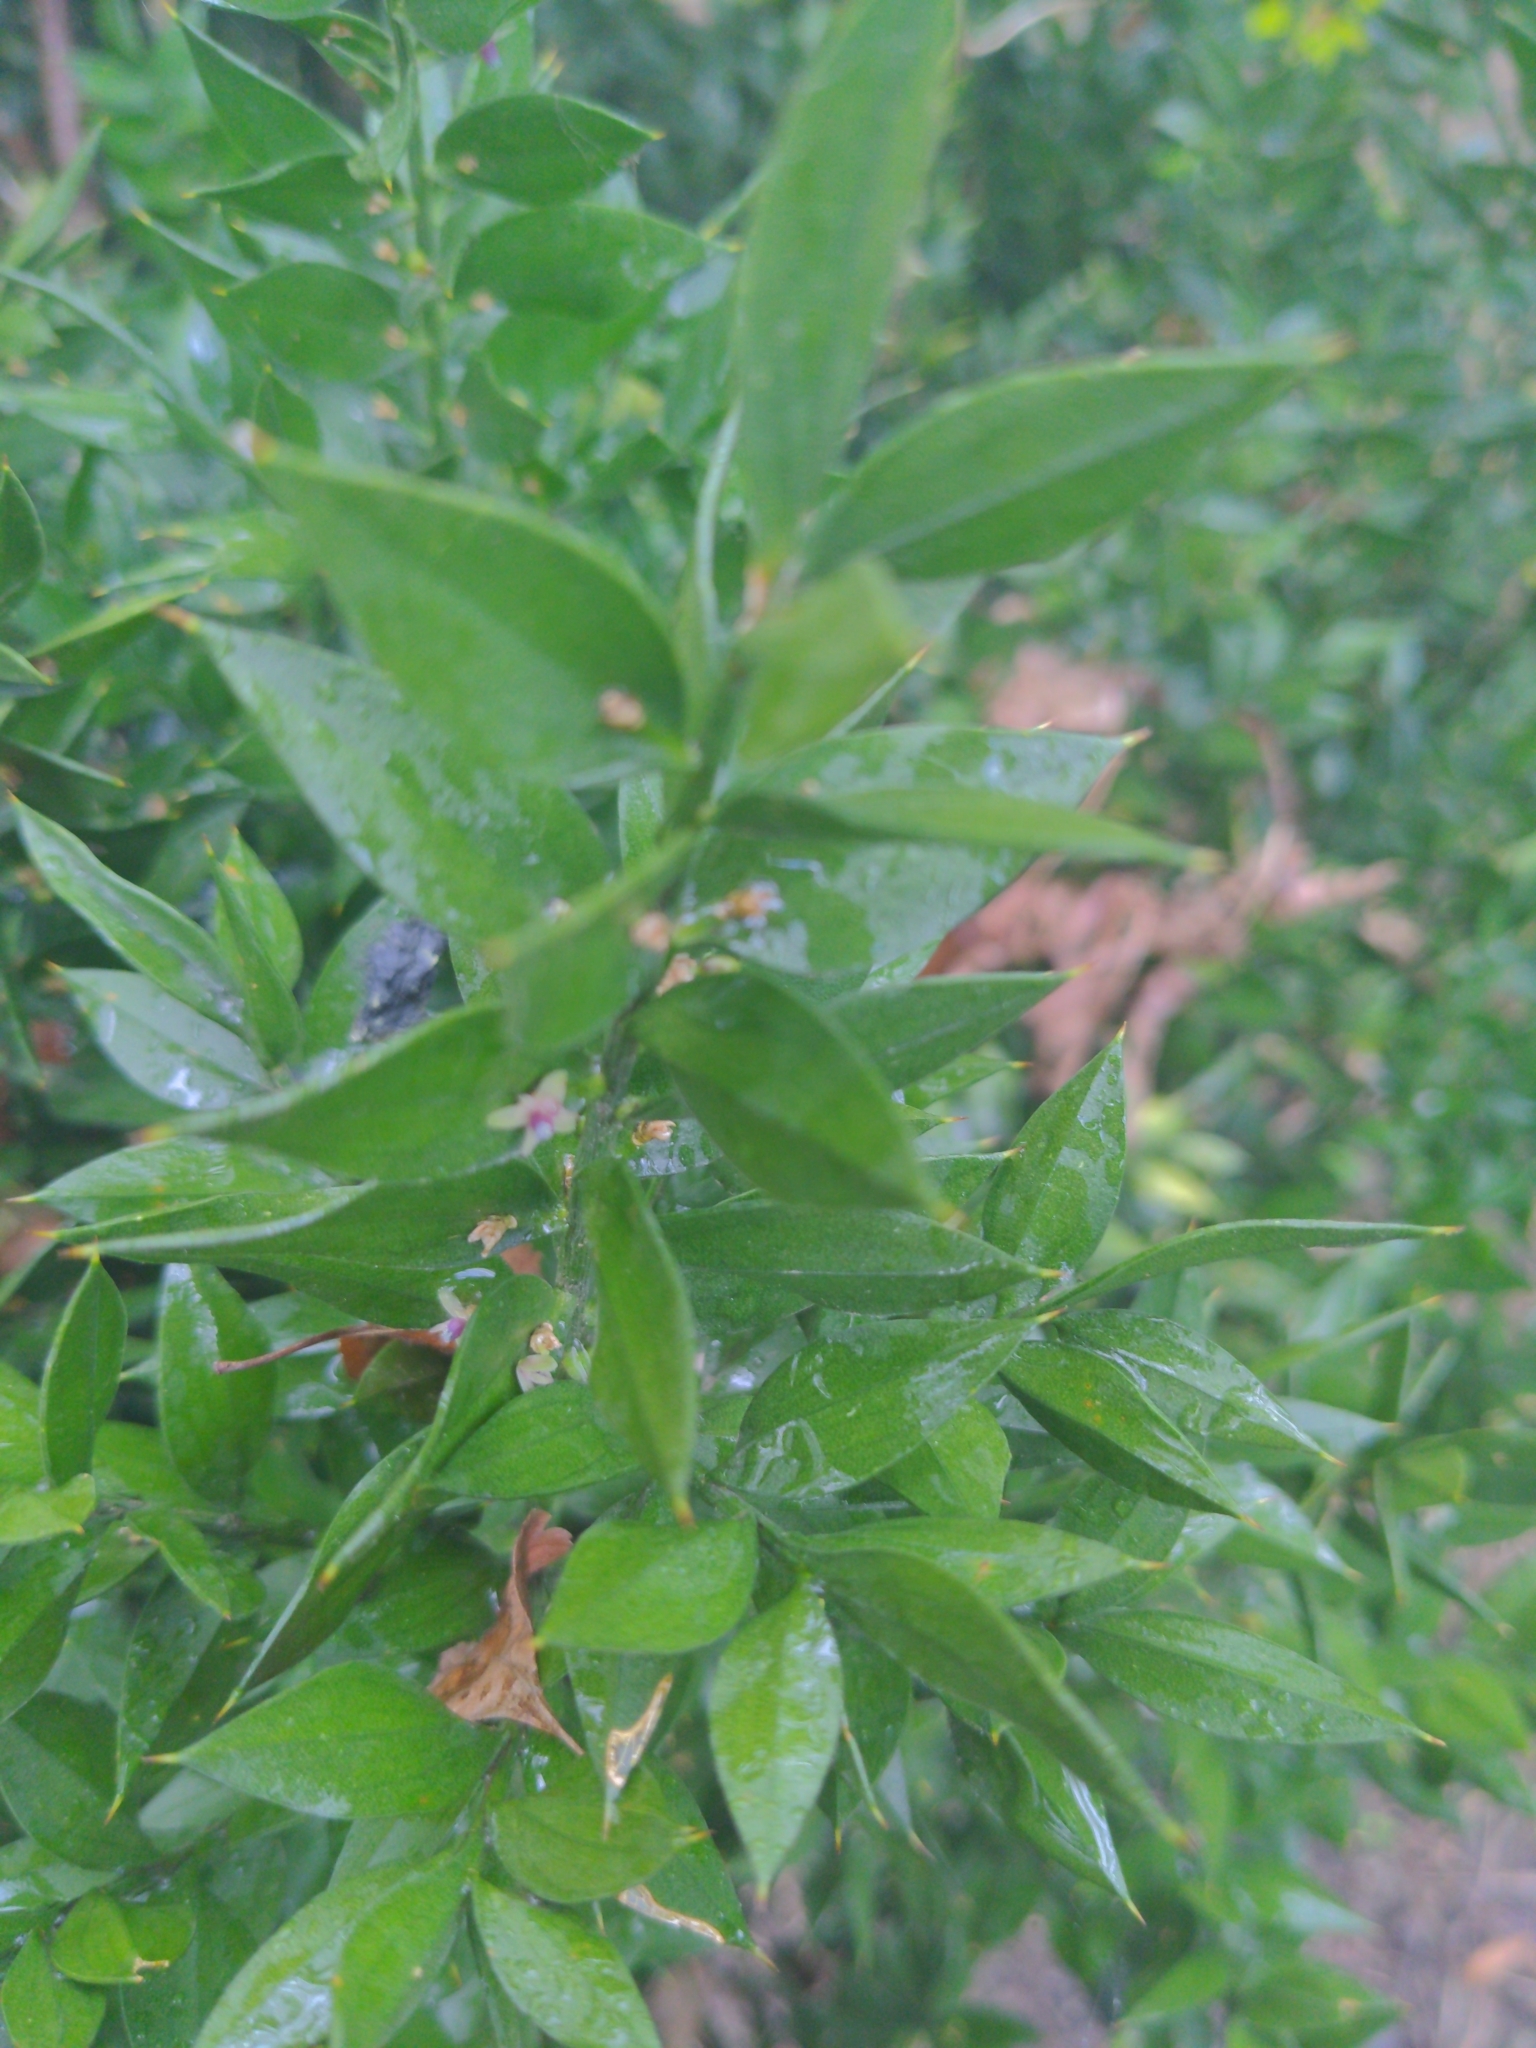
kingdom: Plantae
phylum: Tracheophyta
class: Liliopsida
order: Asparagales
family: Asparagaceae
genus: Ruscus
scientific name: Ruscus aculeatus
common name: Butcher's-broom
